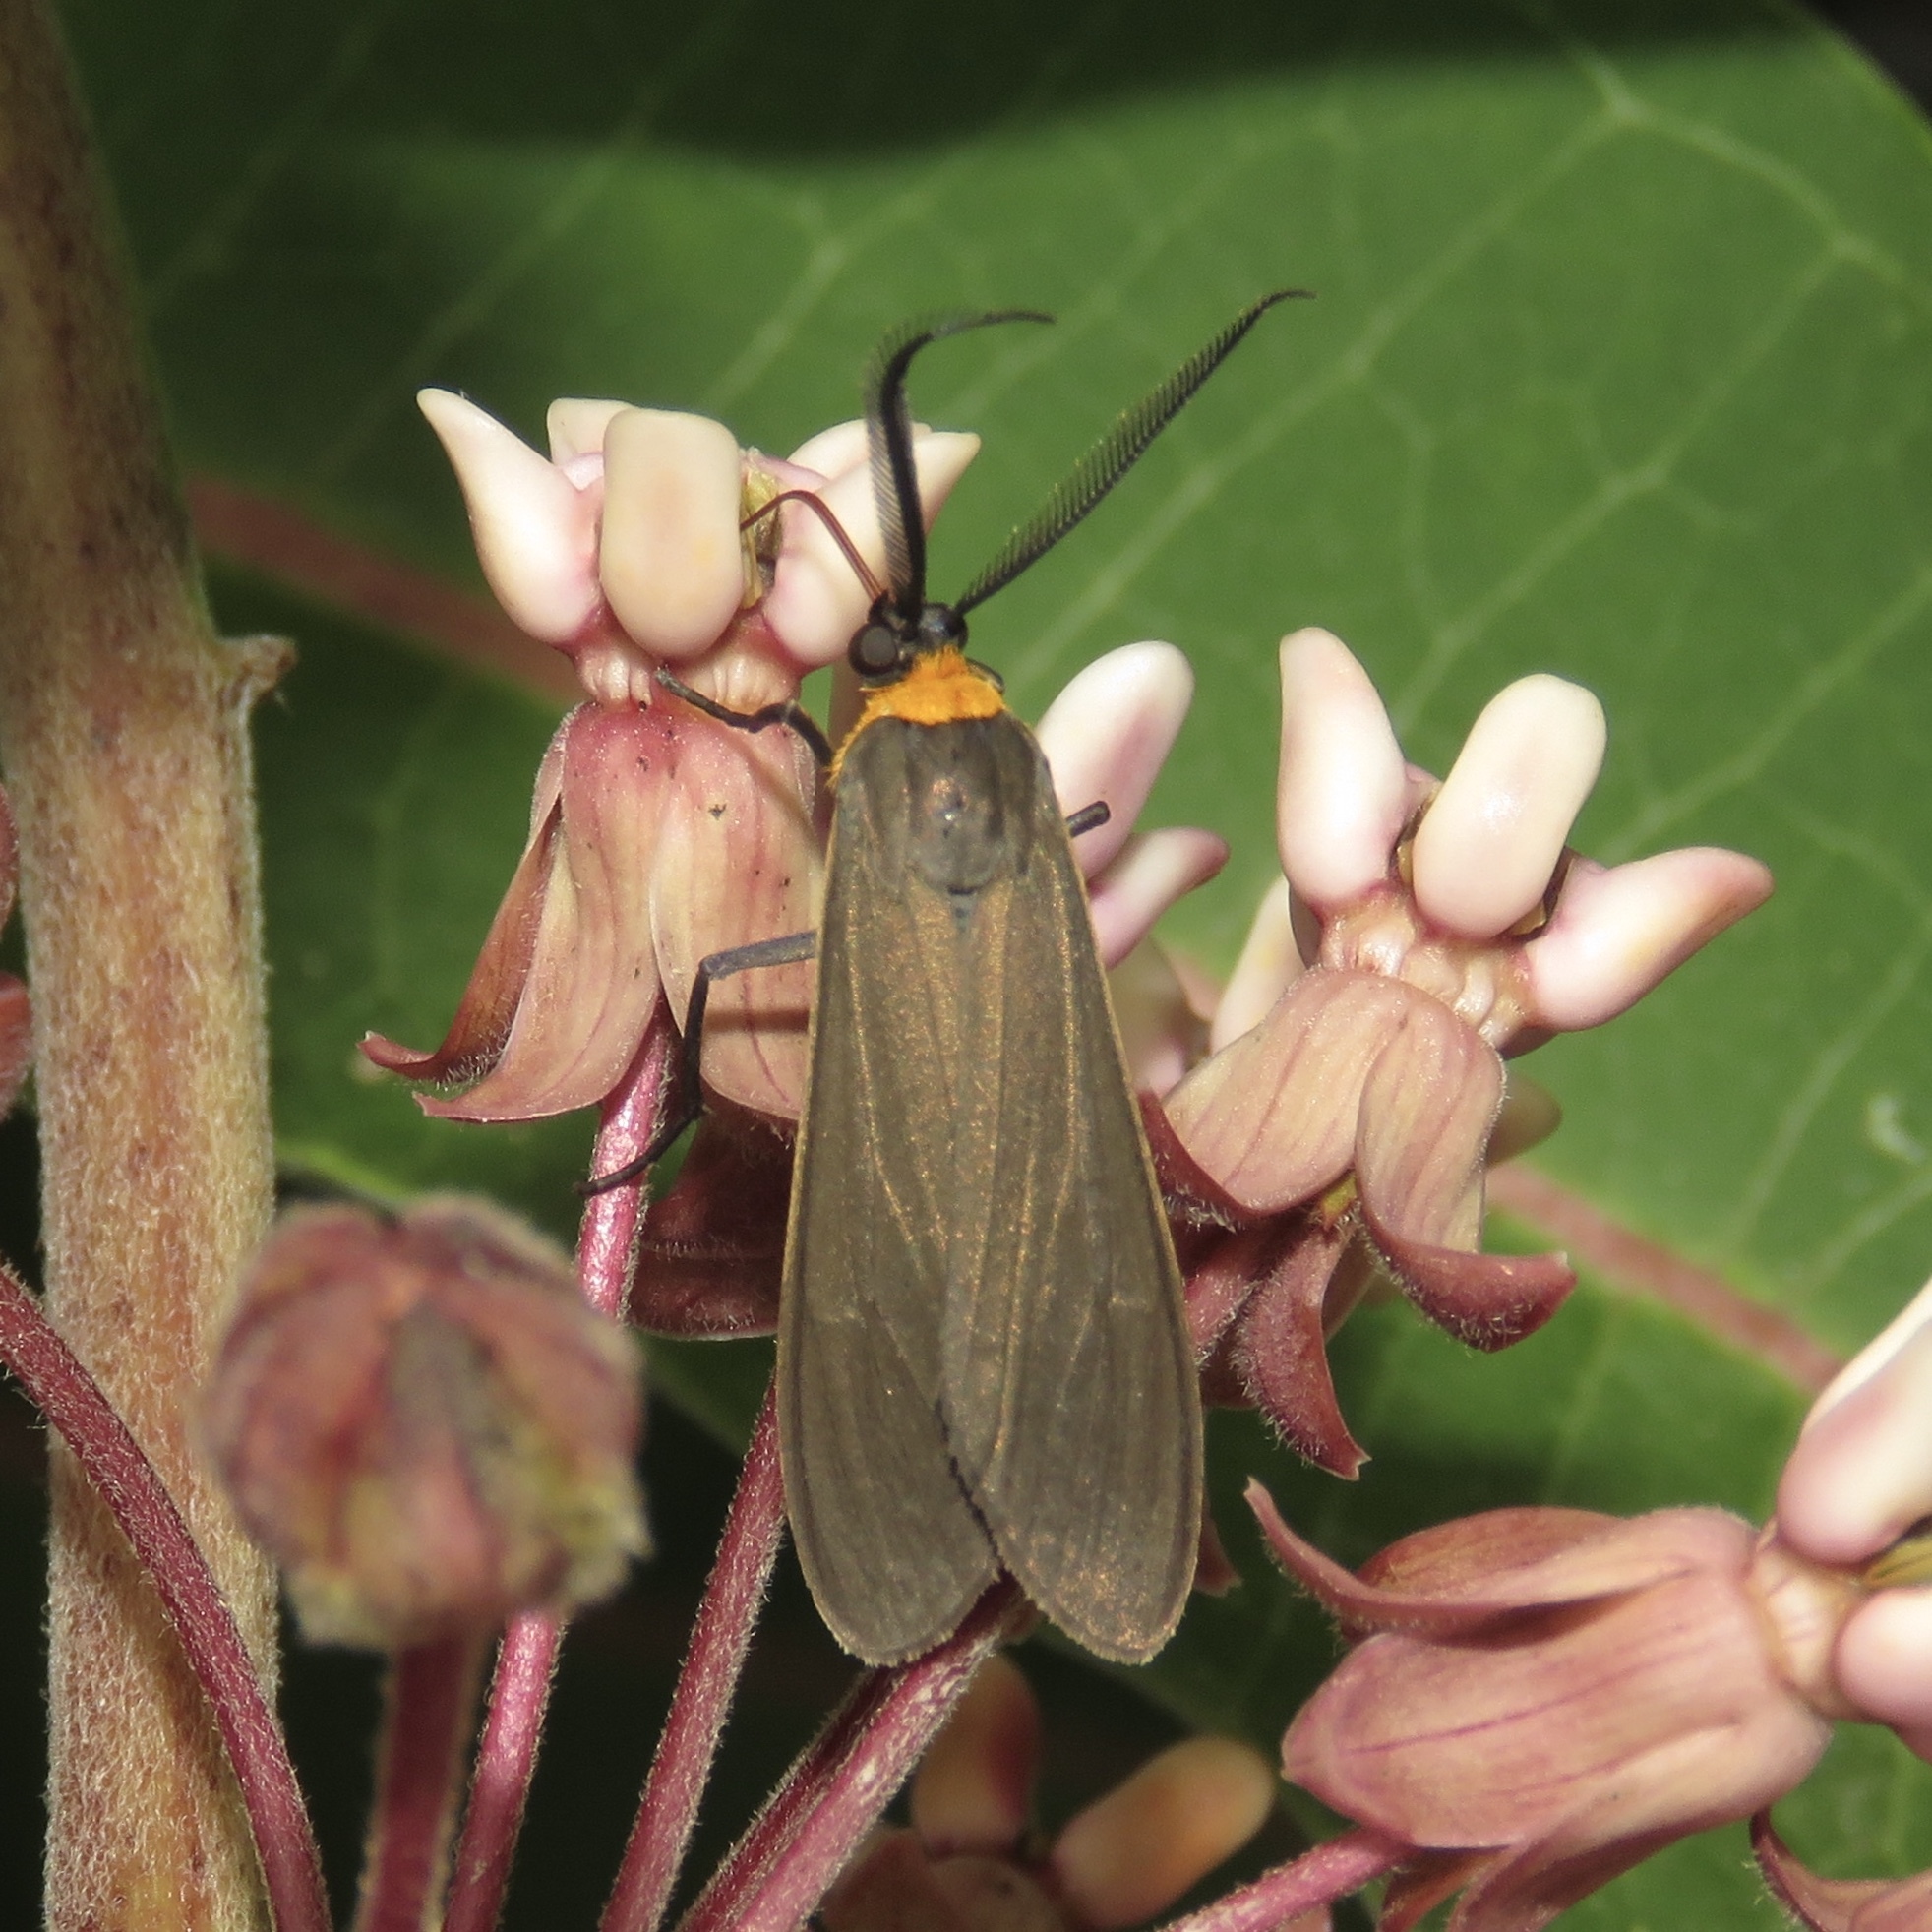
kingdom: Animalia
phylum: Arthropoda
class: Insecta
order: Lepidoptera
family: Erebidae
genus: Cisseps
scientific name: Cisseps fulvicollis
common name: Yellow-collared scape moth
